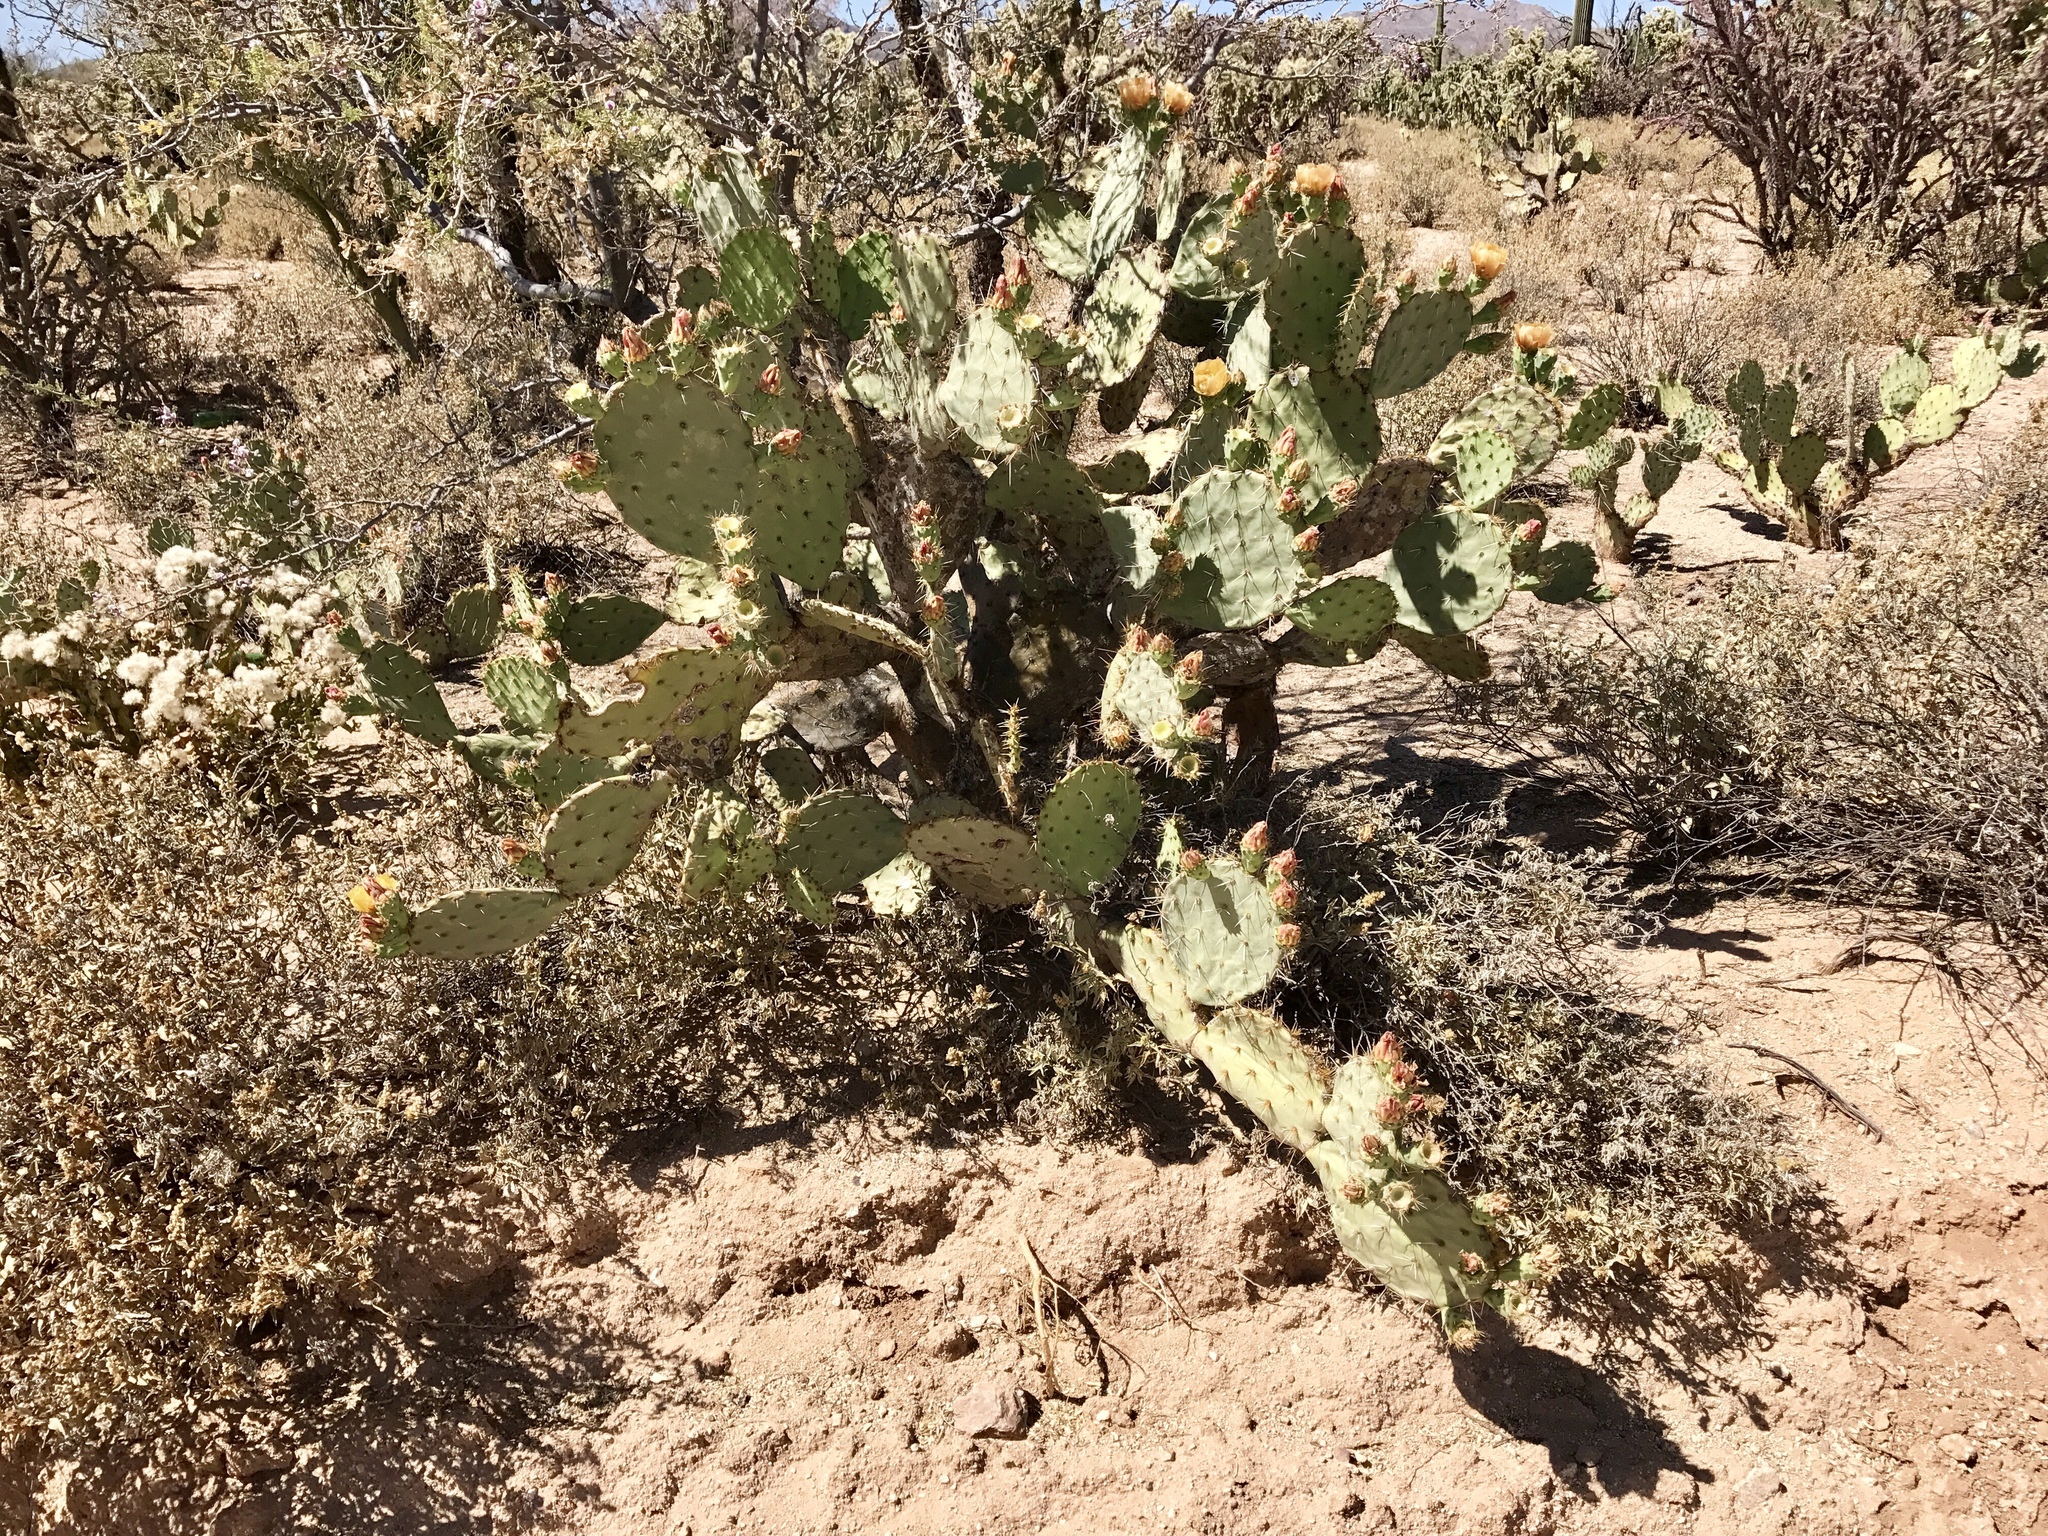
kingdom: Plantae
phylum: Tracheophyta
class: Magnoliopsida
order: Caryophyllales
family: Cactaceae
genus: Opuntia
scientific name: Opuntia engelmannii
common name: Cactus-apple
